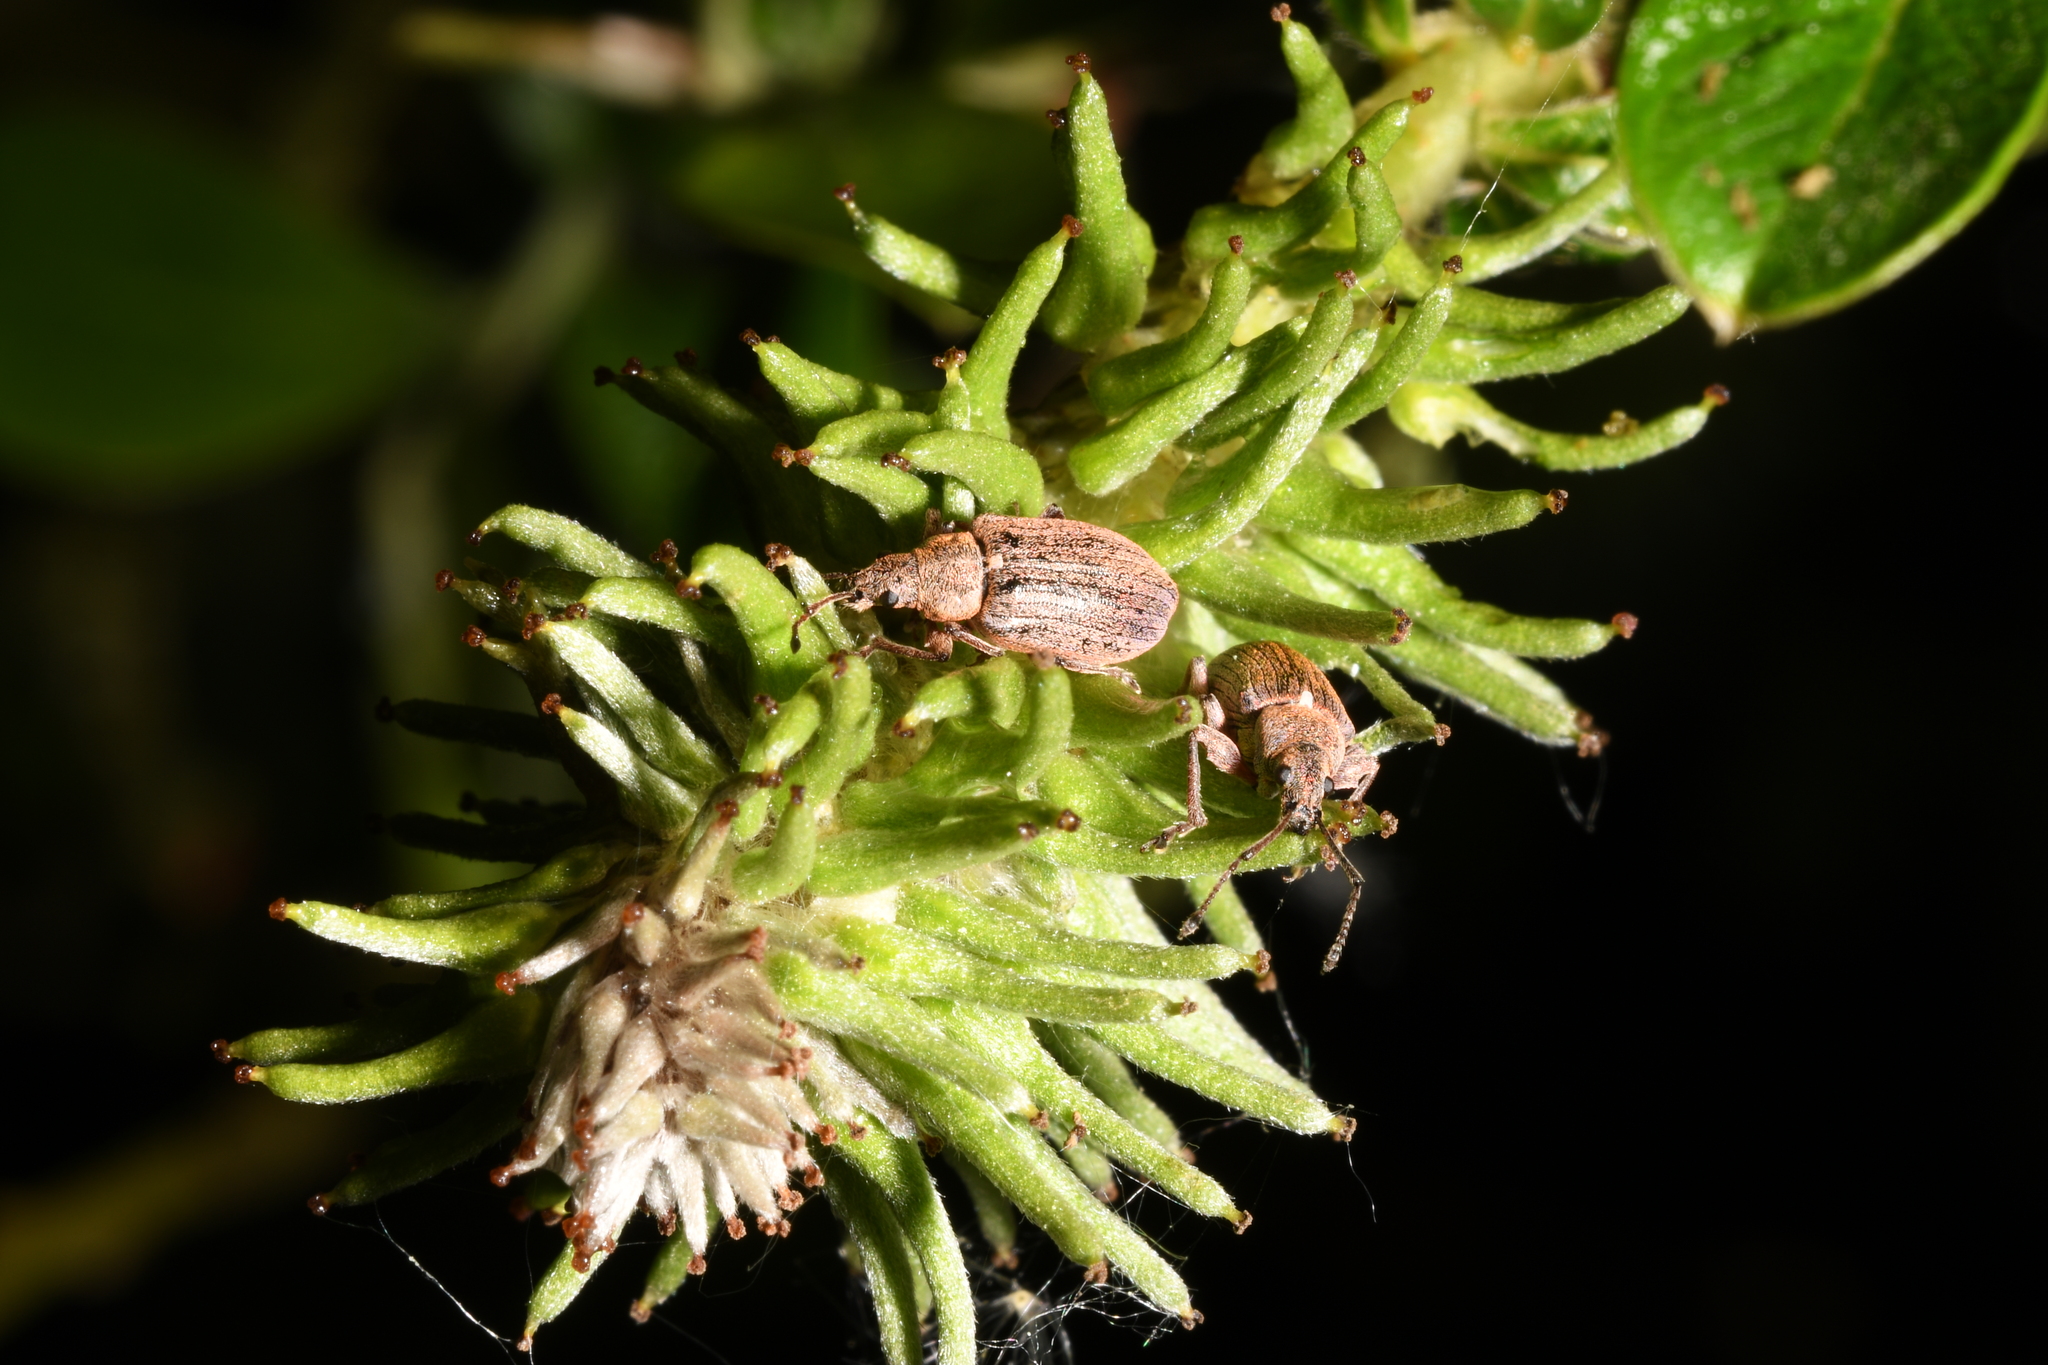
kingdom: Animalia
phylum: Arthropoda
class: Insecta
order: Coleoptera
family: Curculionidae
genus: Phyllobius
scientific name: Phyllobius pyri
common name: Common leaf weevil
